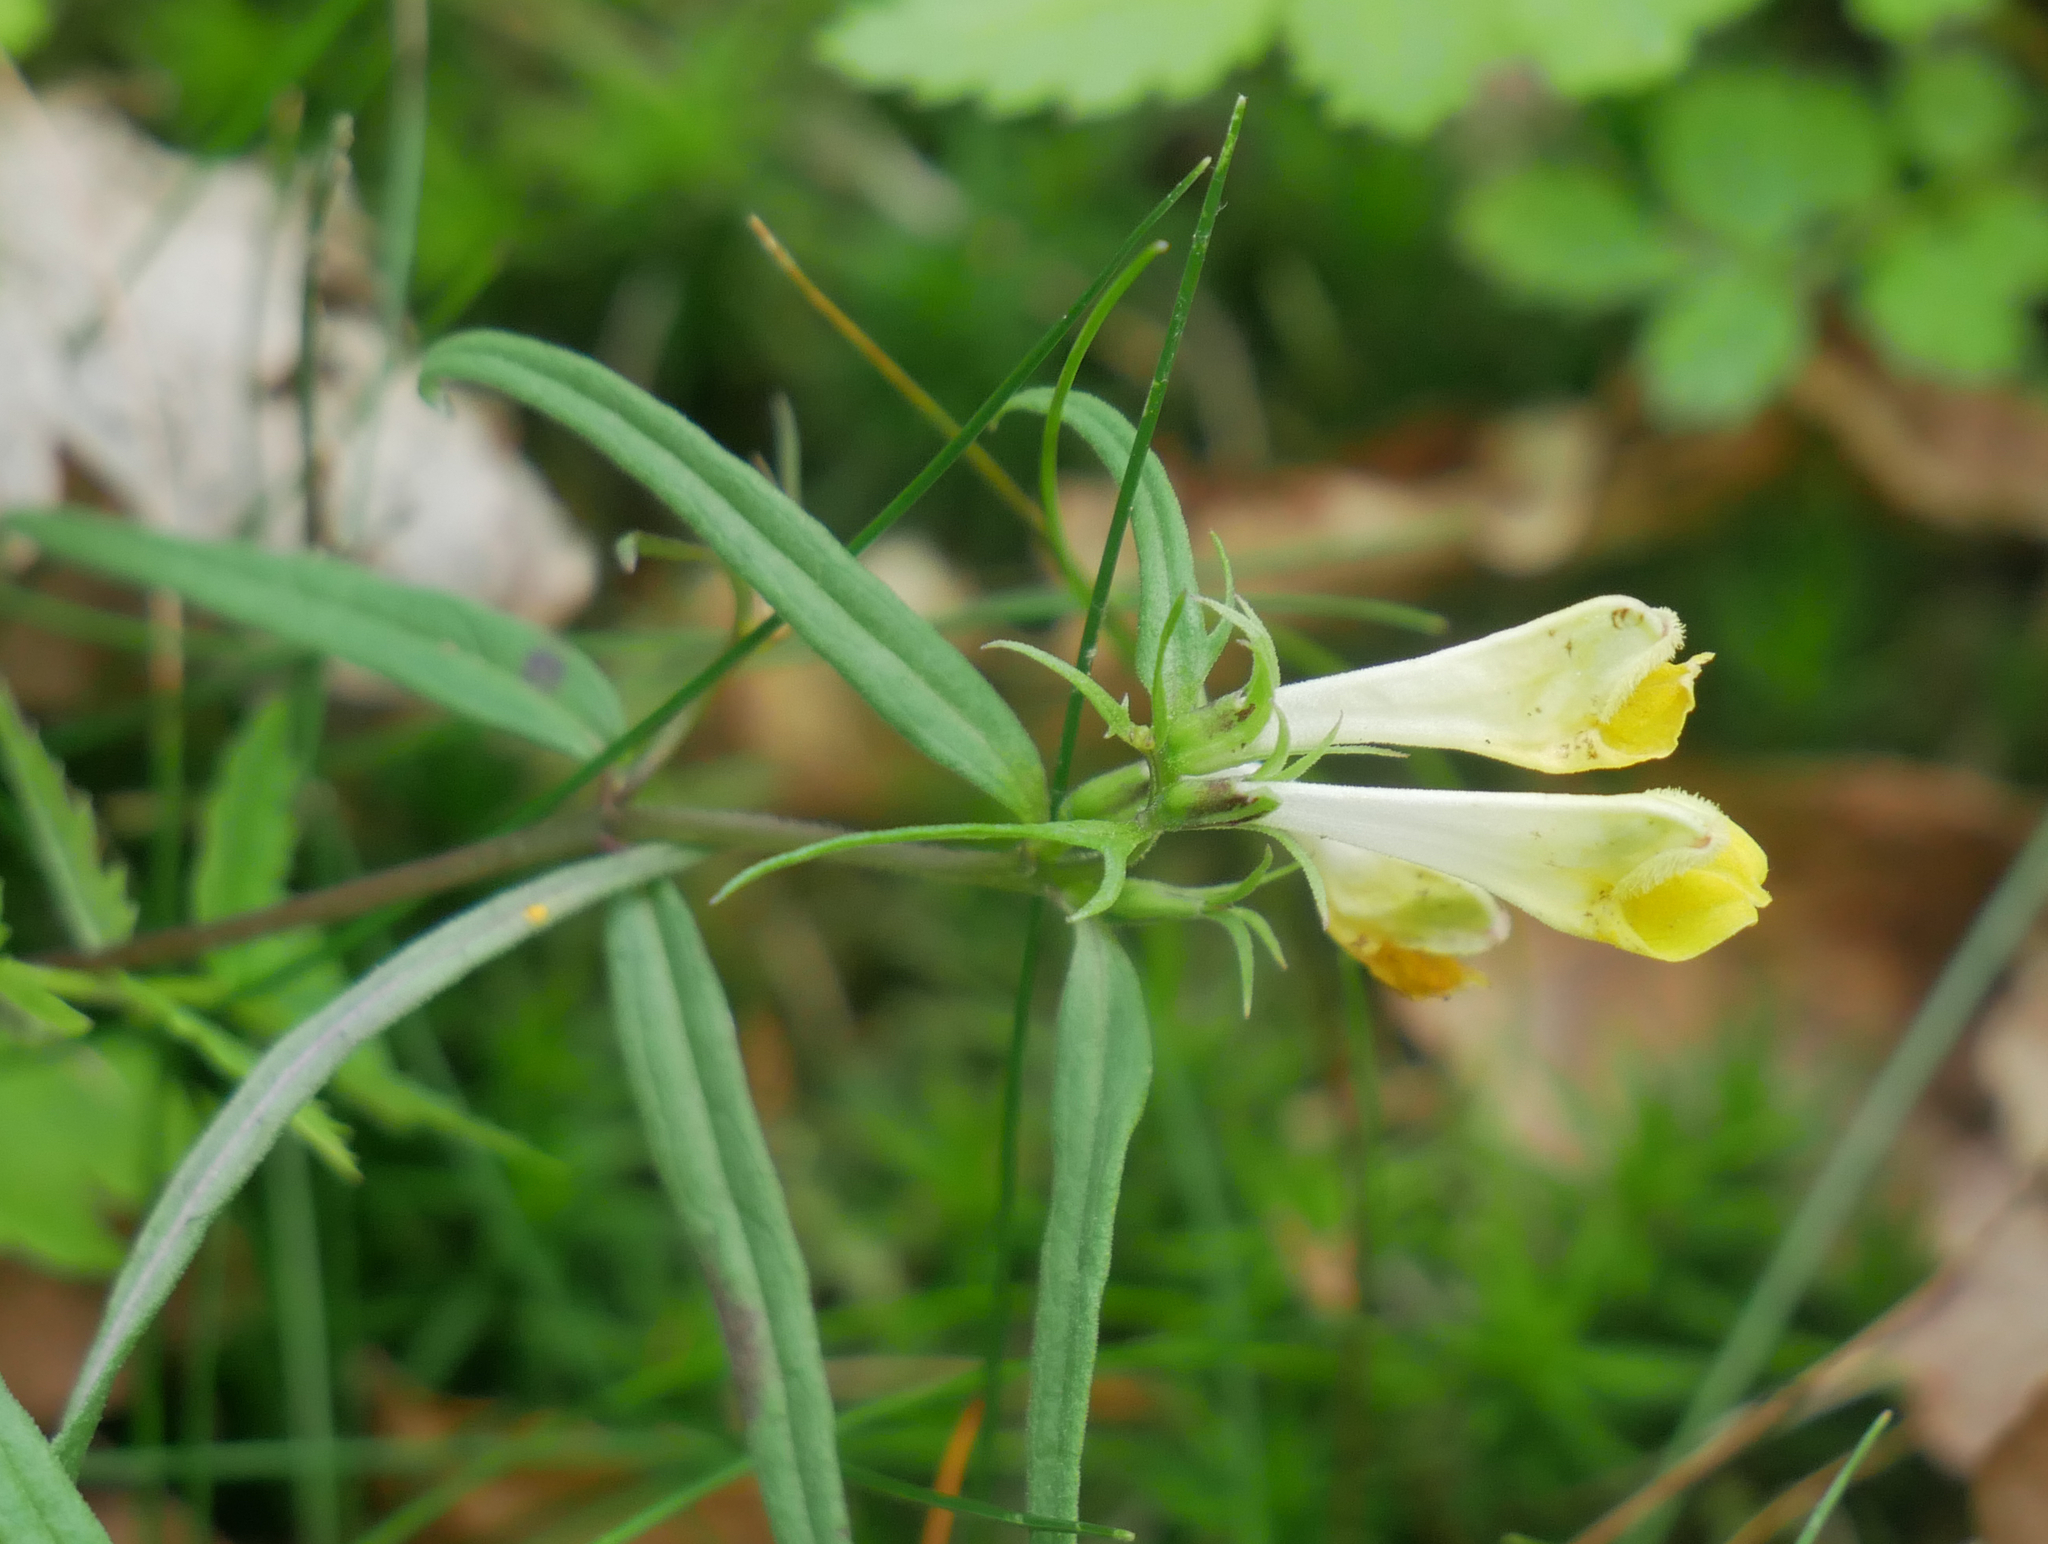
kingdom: Plantae
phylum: Tracheophyta
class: Magnoliopsida
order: Lamiales
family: Orobanchaceae
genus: Melampyrum
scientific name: Melampyrum pratense
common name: Common cow-wheat
